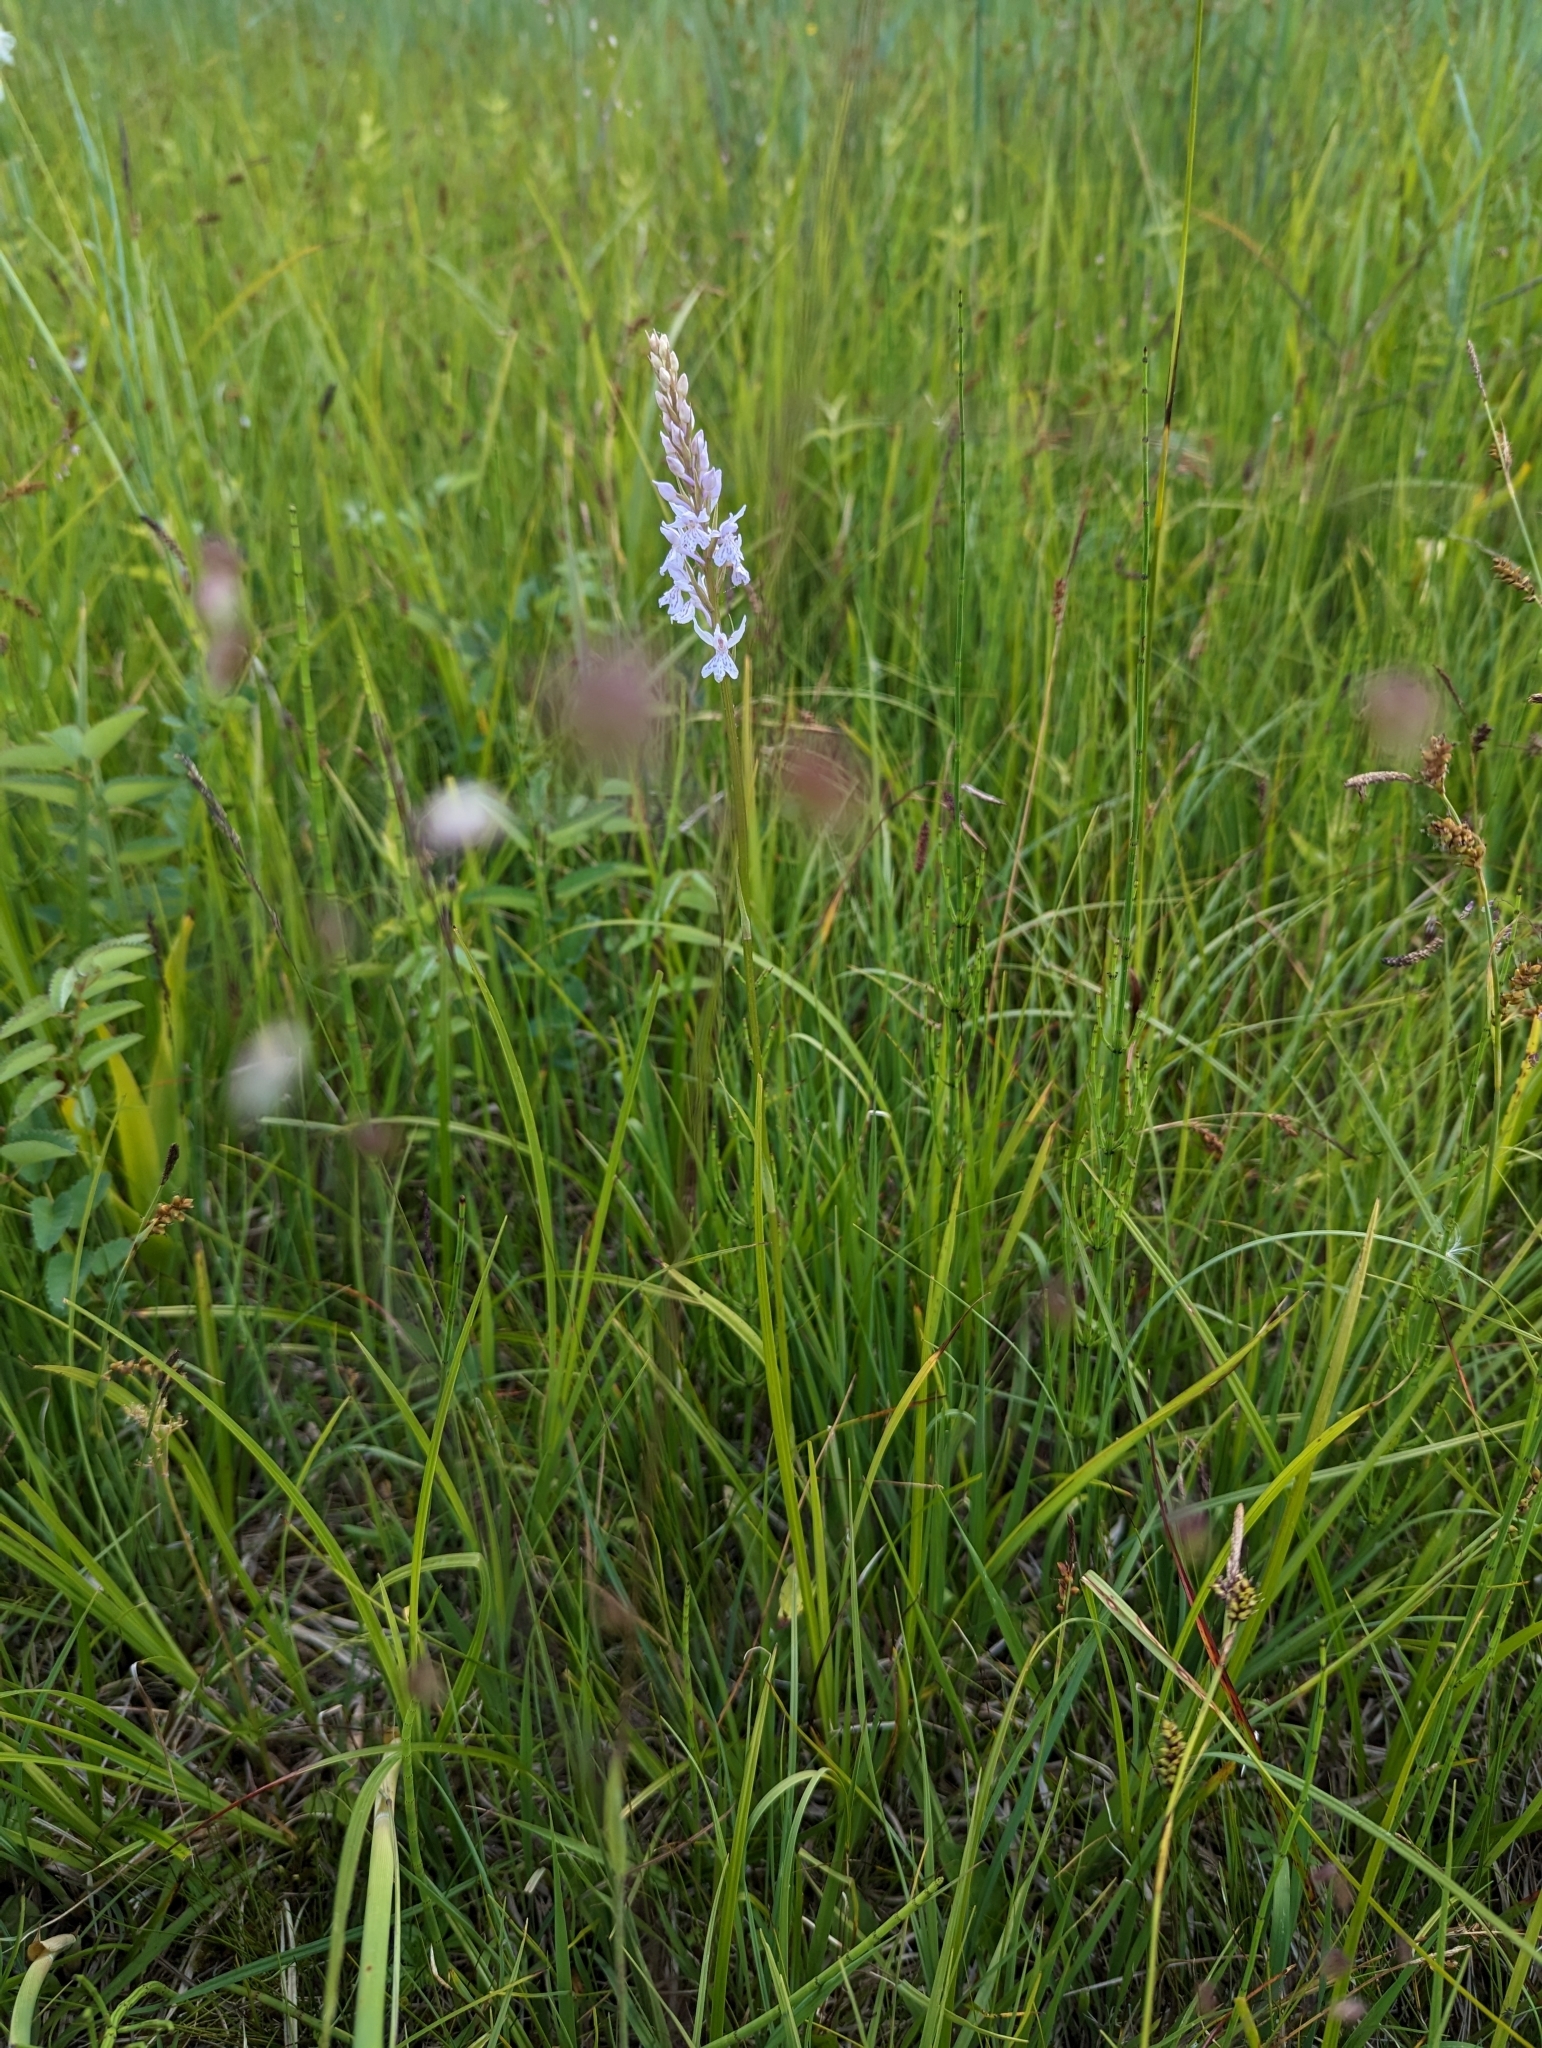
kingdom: Plantae
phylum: Tracheophyta
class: Liliopsida
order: Asparagales
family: Orchidaceae
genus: Dactylorhiza
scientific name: Dactylorhiza maculata
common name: Heath spotted-orchid
